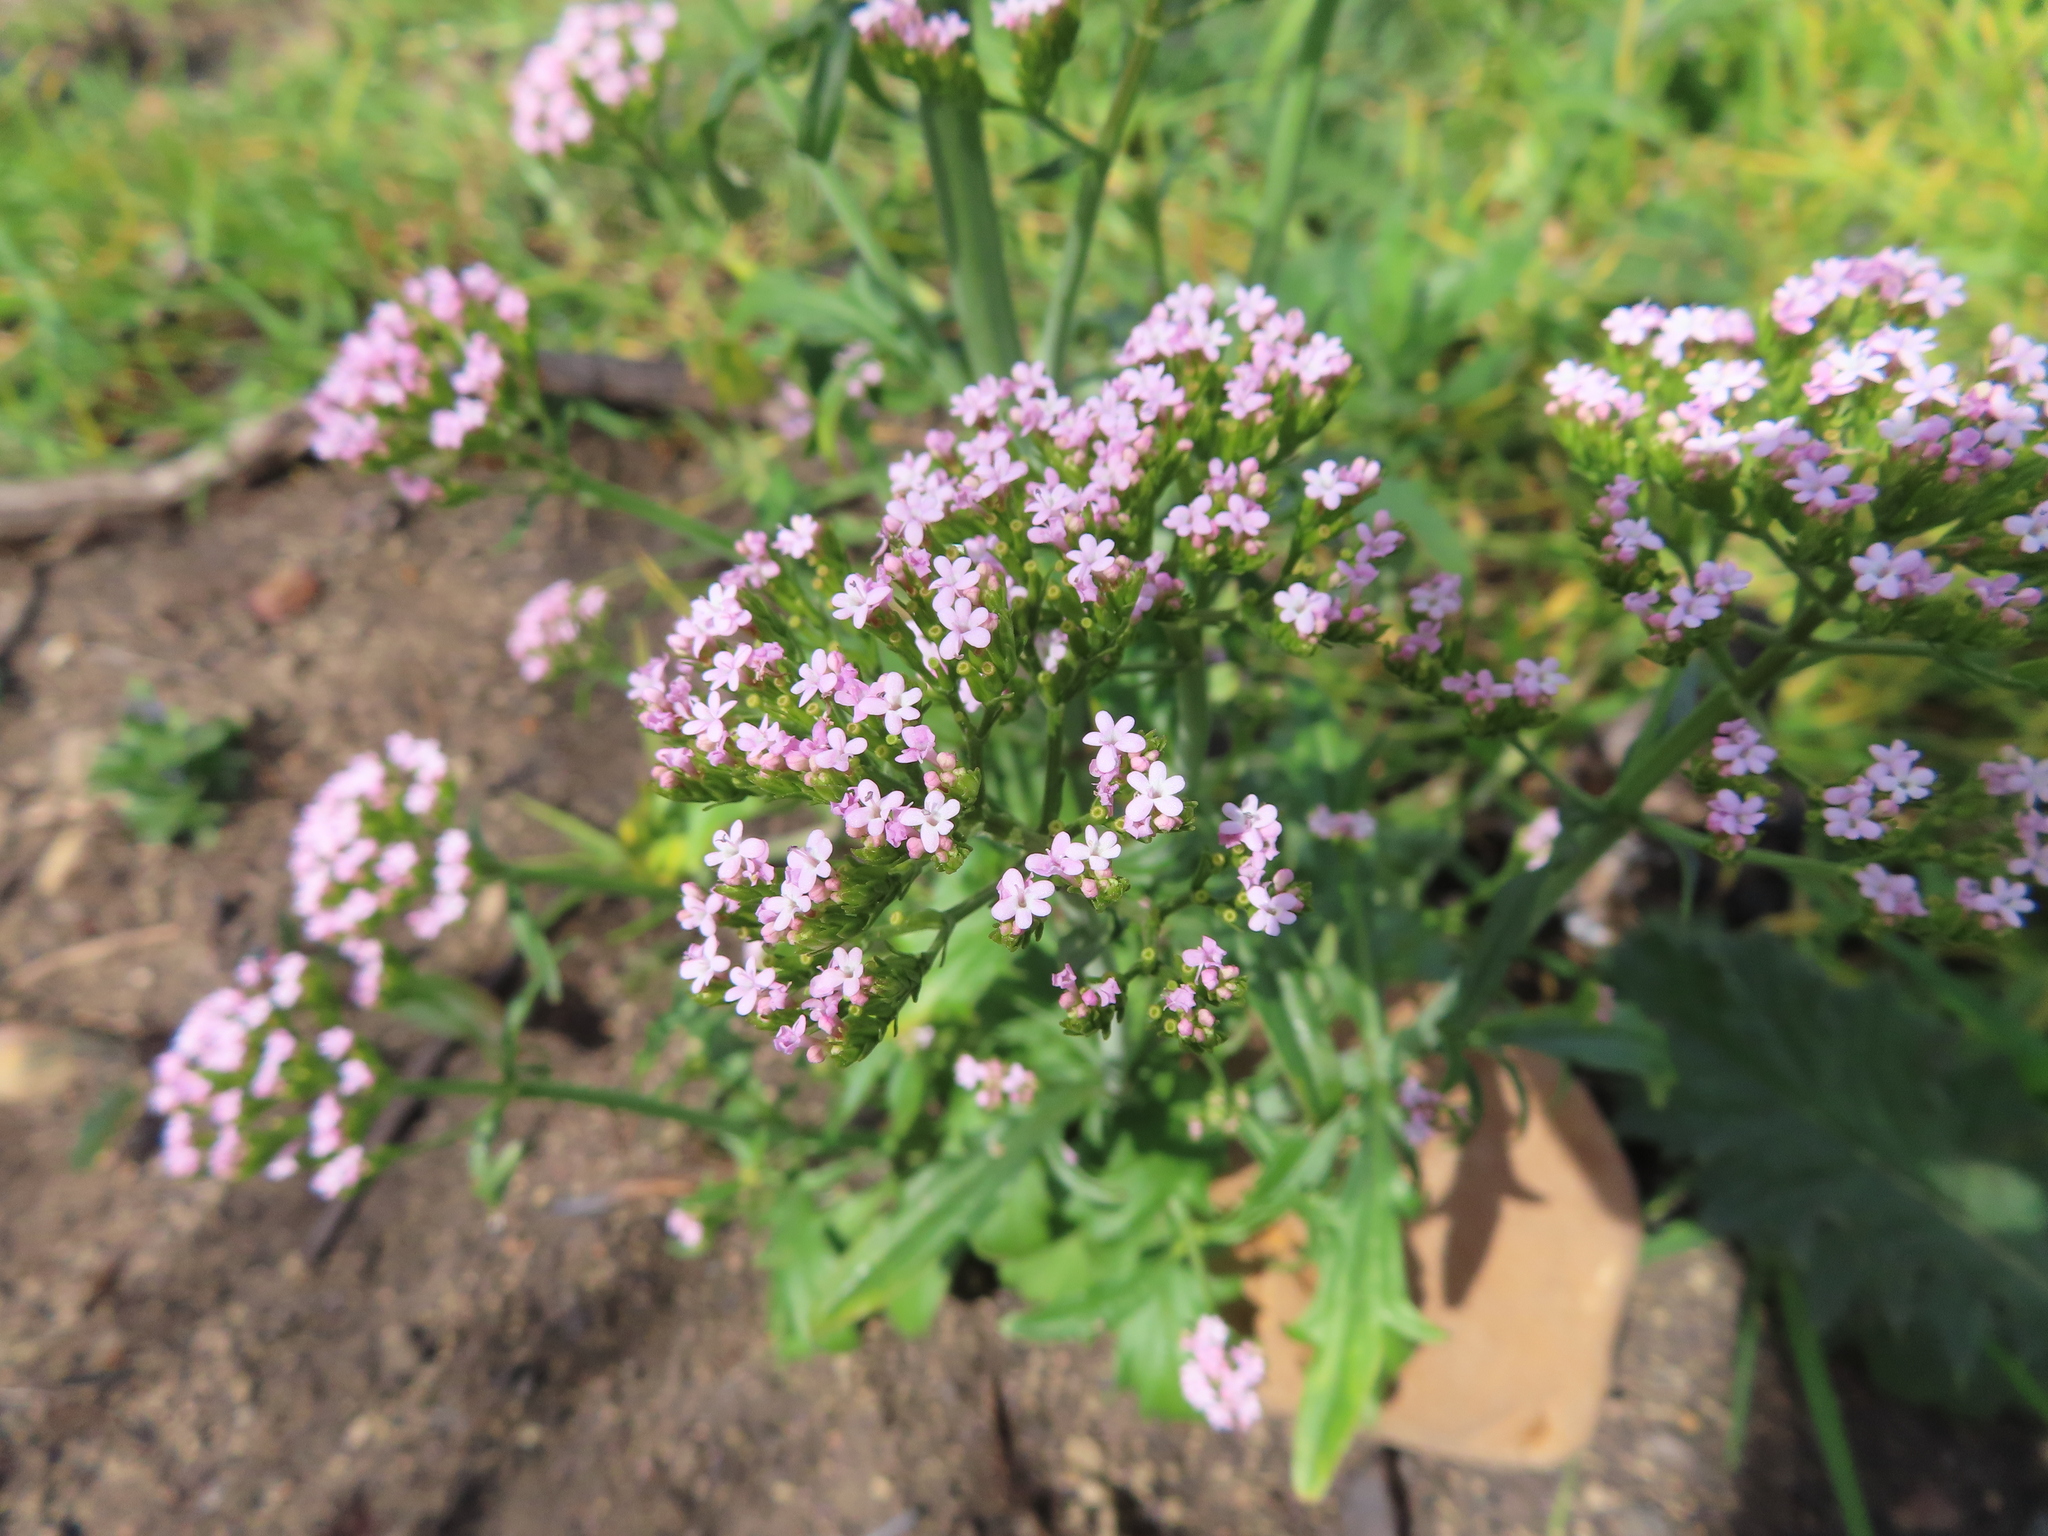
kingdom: Plantae
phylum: Tracheophyta
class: Magnoliopsida
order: Dipsacales
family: Caprifoliaceae
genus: Centranthus
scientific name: Centranthus calcitrapae
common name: Annual valerian
